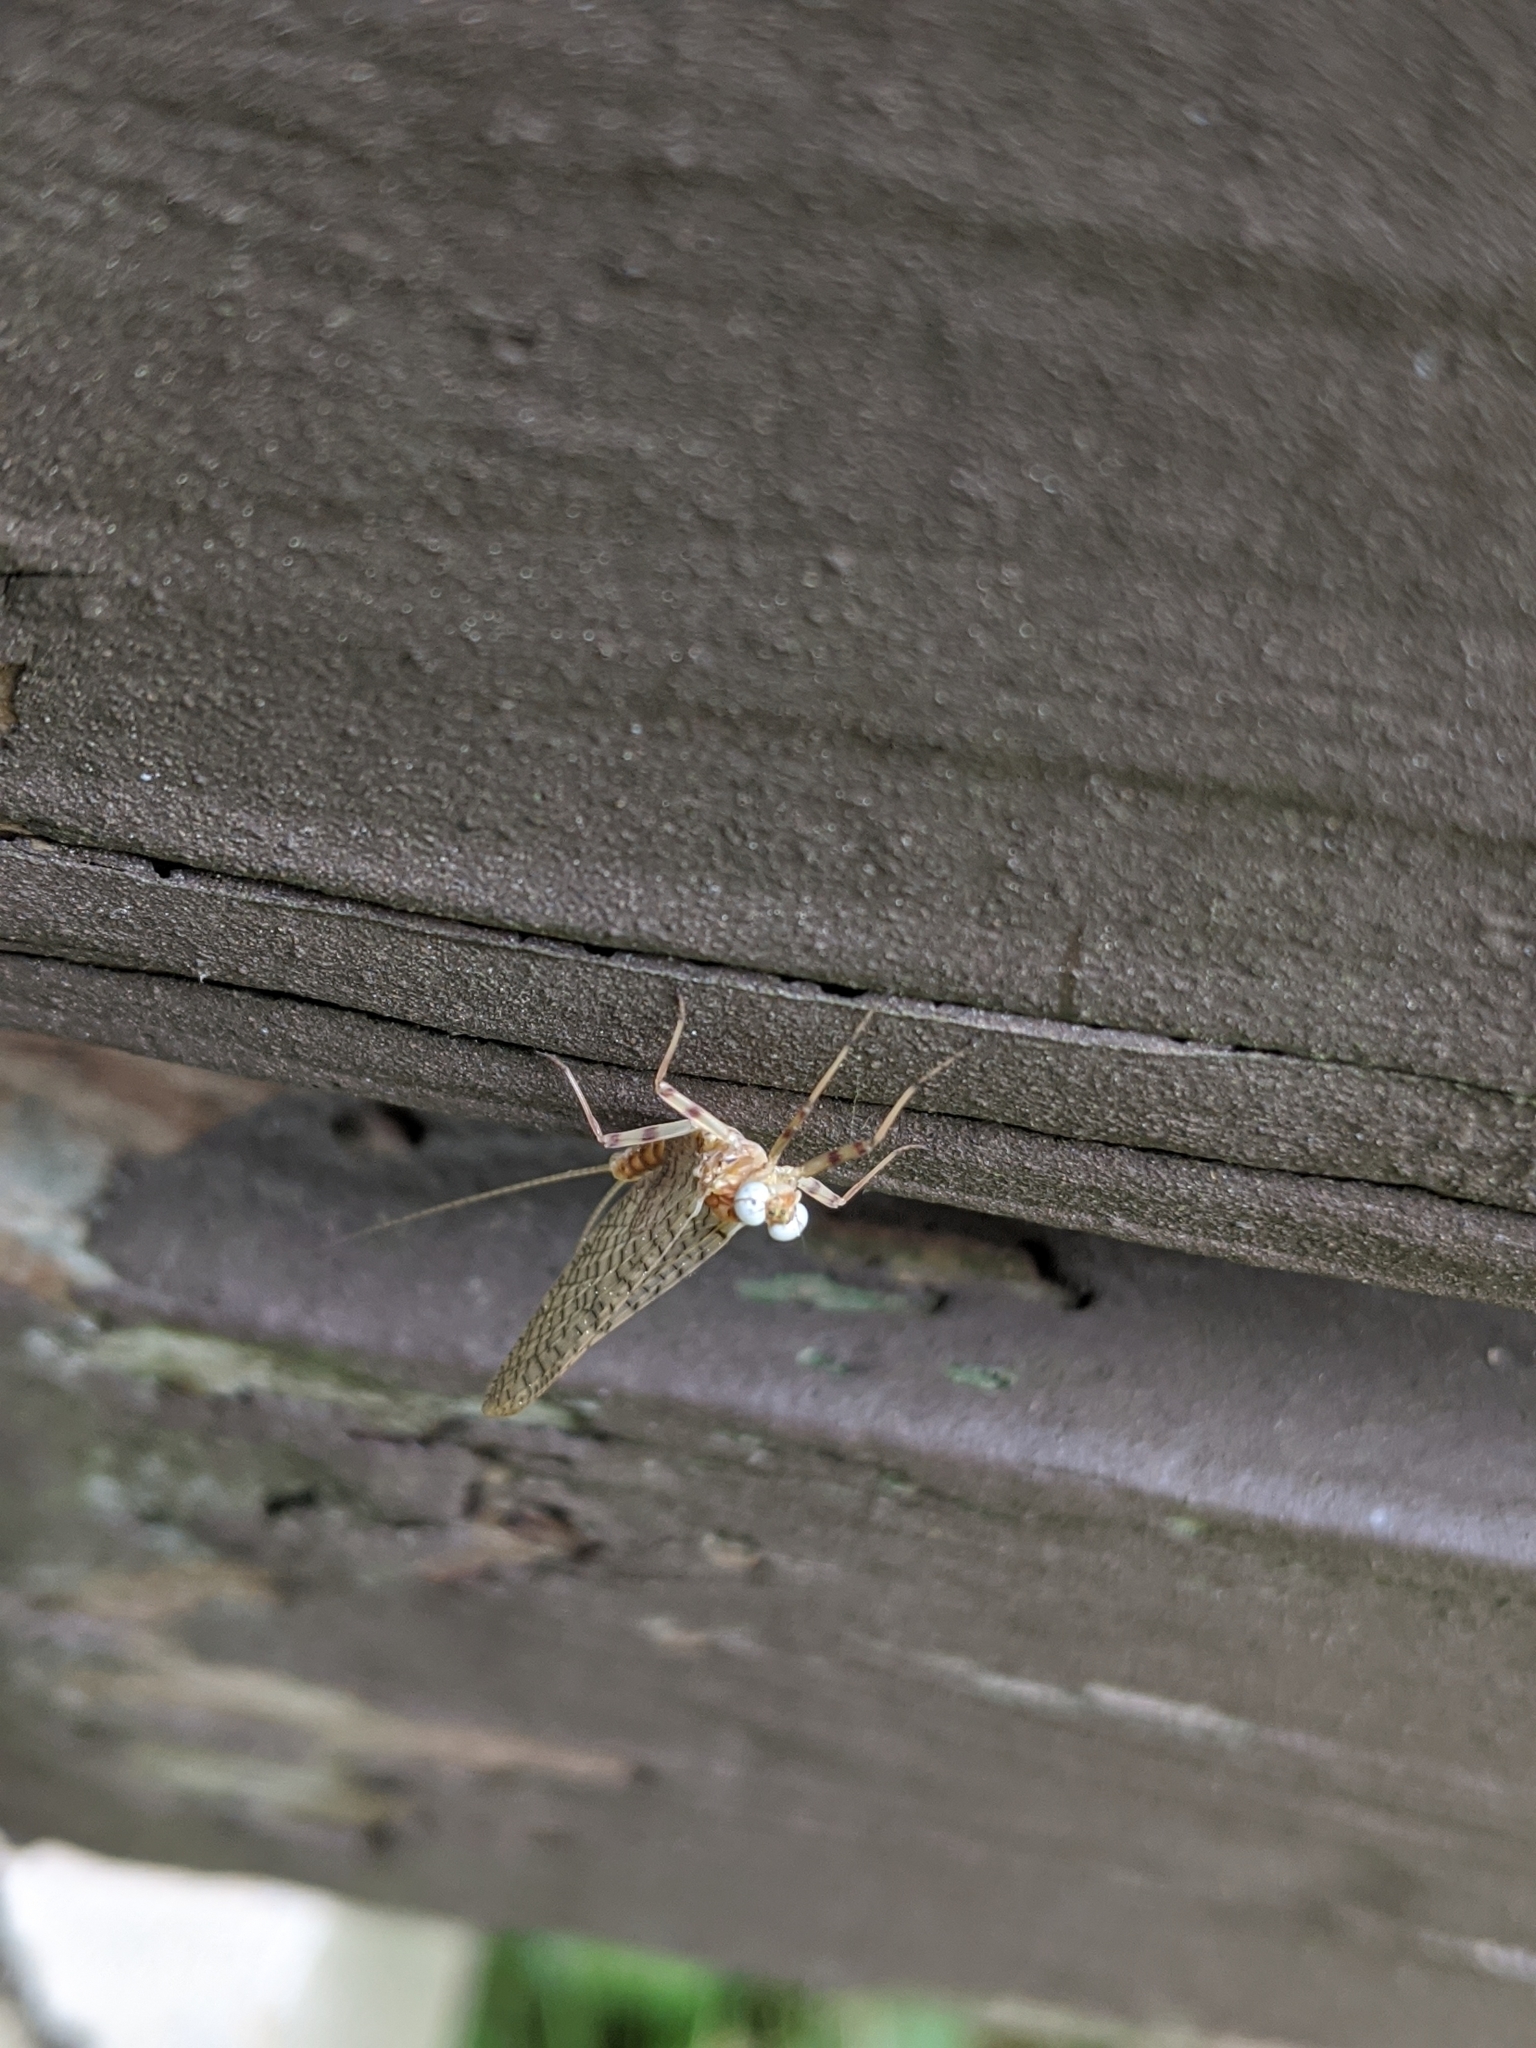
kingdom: Animalia
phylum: Arthropoda
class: Insecta
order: Ephemeroptera
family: Heptageniidae
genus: Maccaffertium
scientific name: Maccaffertium vicarium
